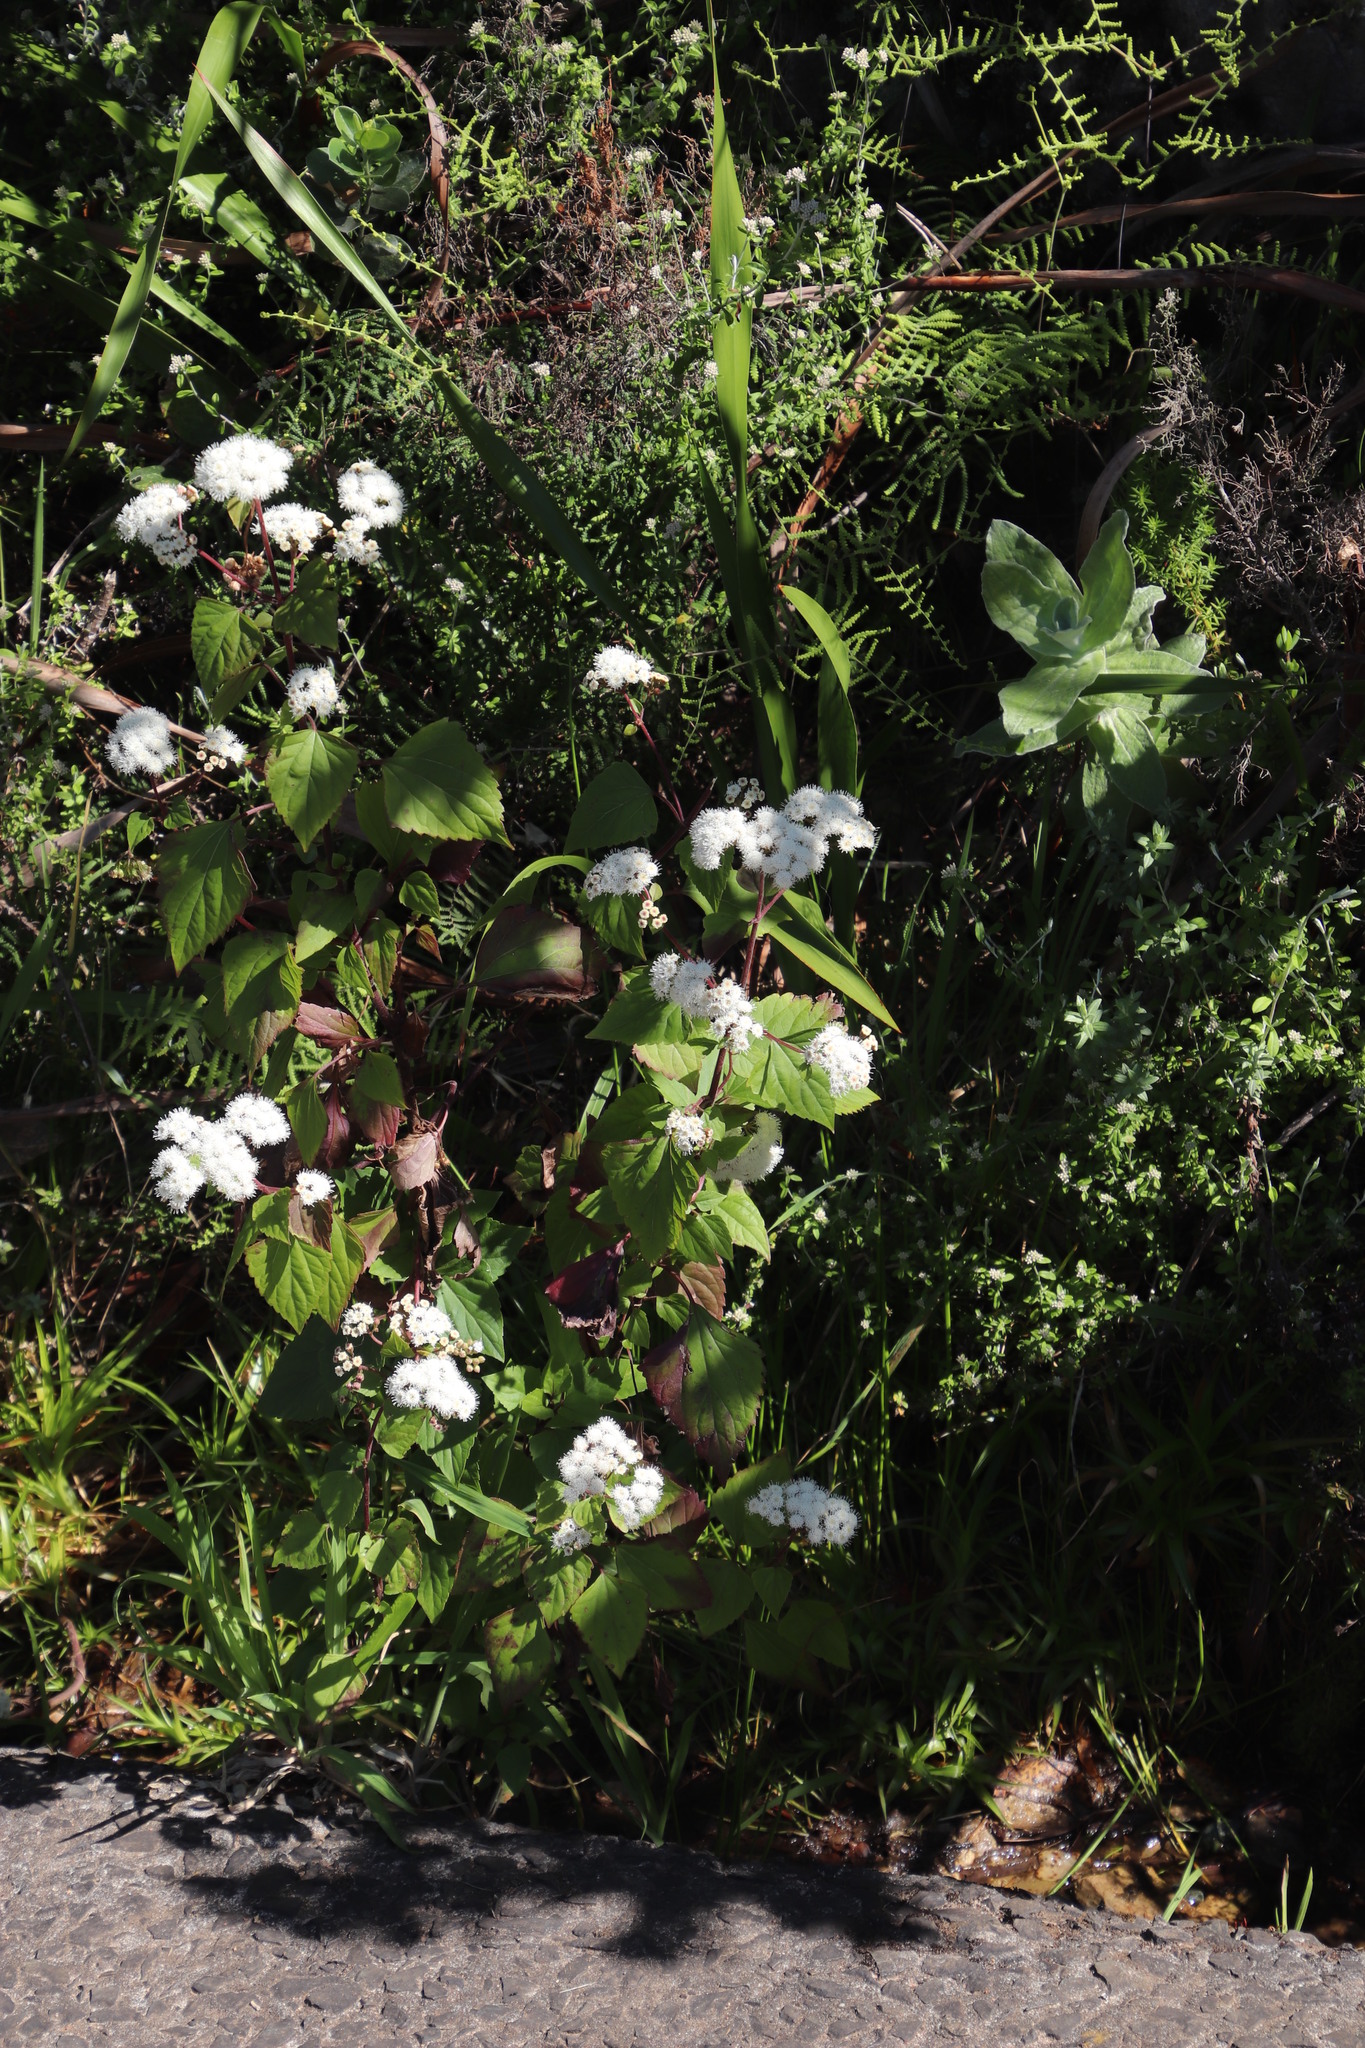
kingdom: Plantae
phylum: Tracheophyta
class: Magnoliopsida
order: Asterales
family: Asteraceae
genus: Ageratina
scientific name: Ageratina adenophora
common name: Sticky snakeroot
